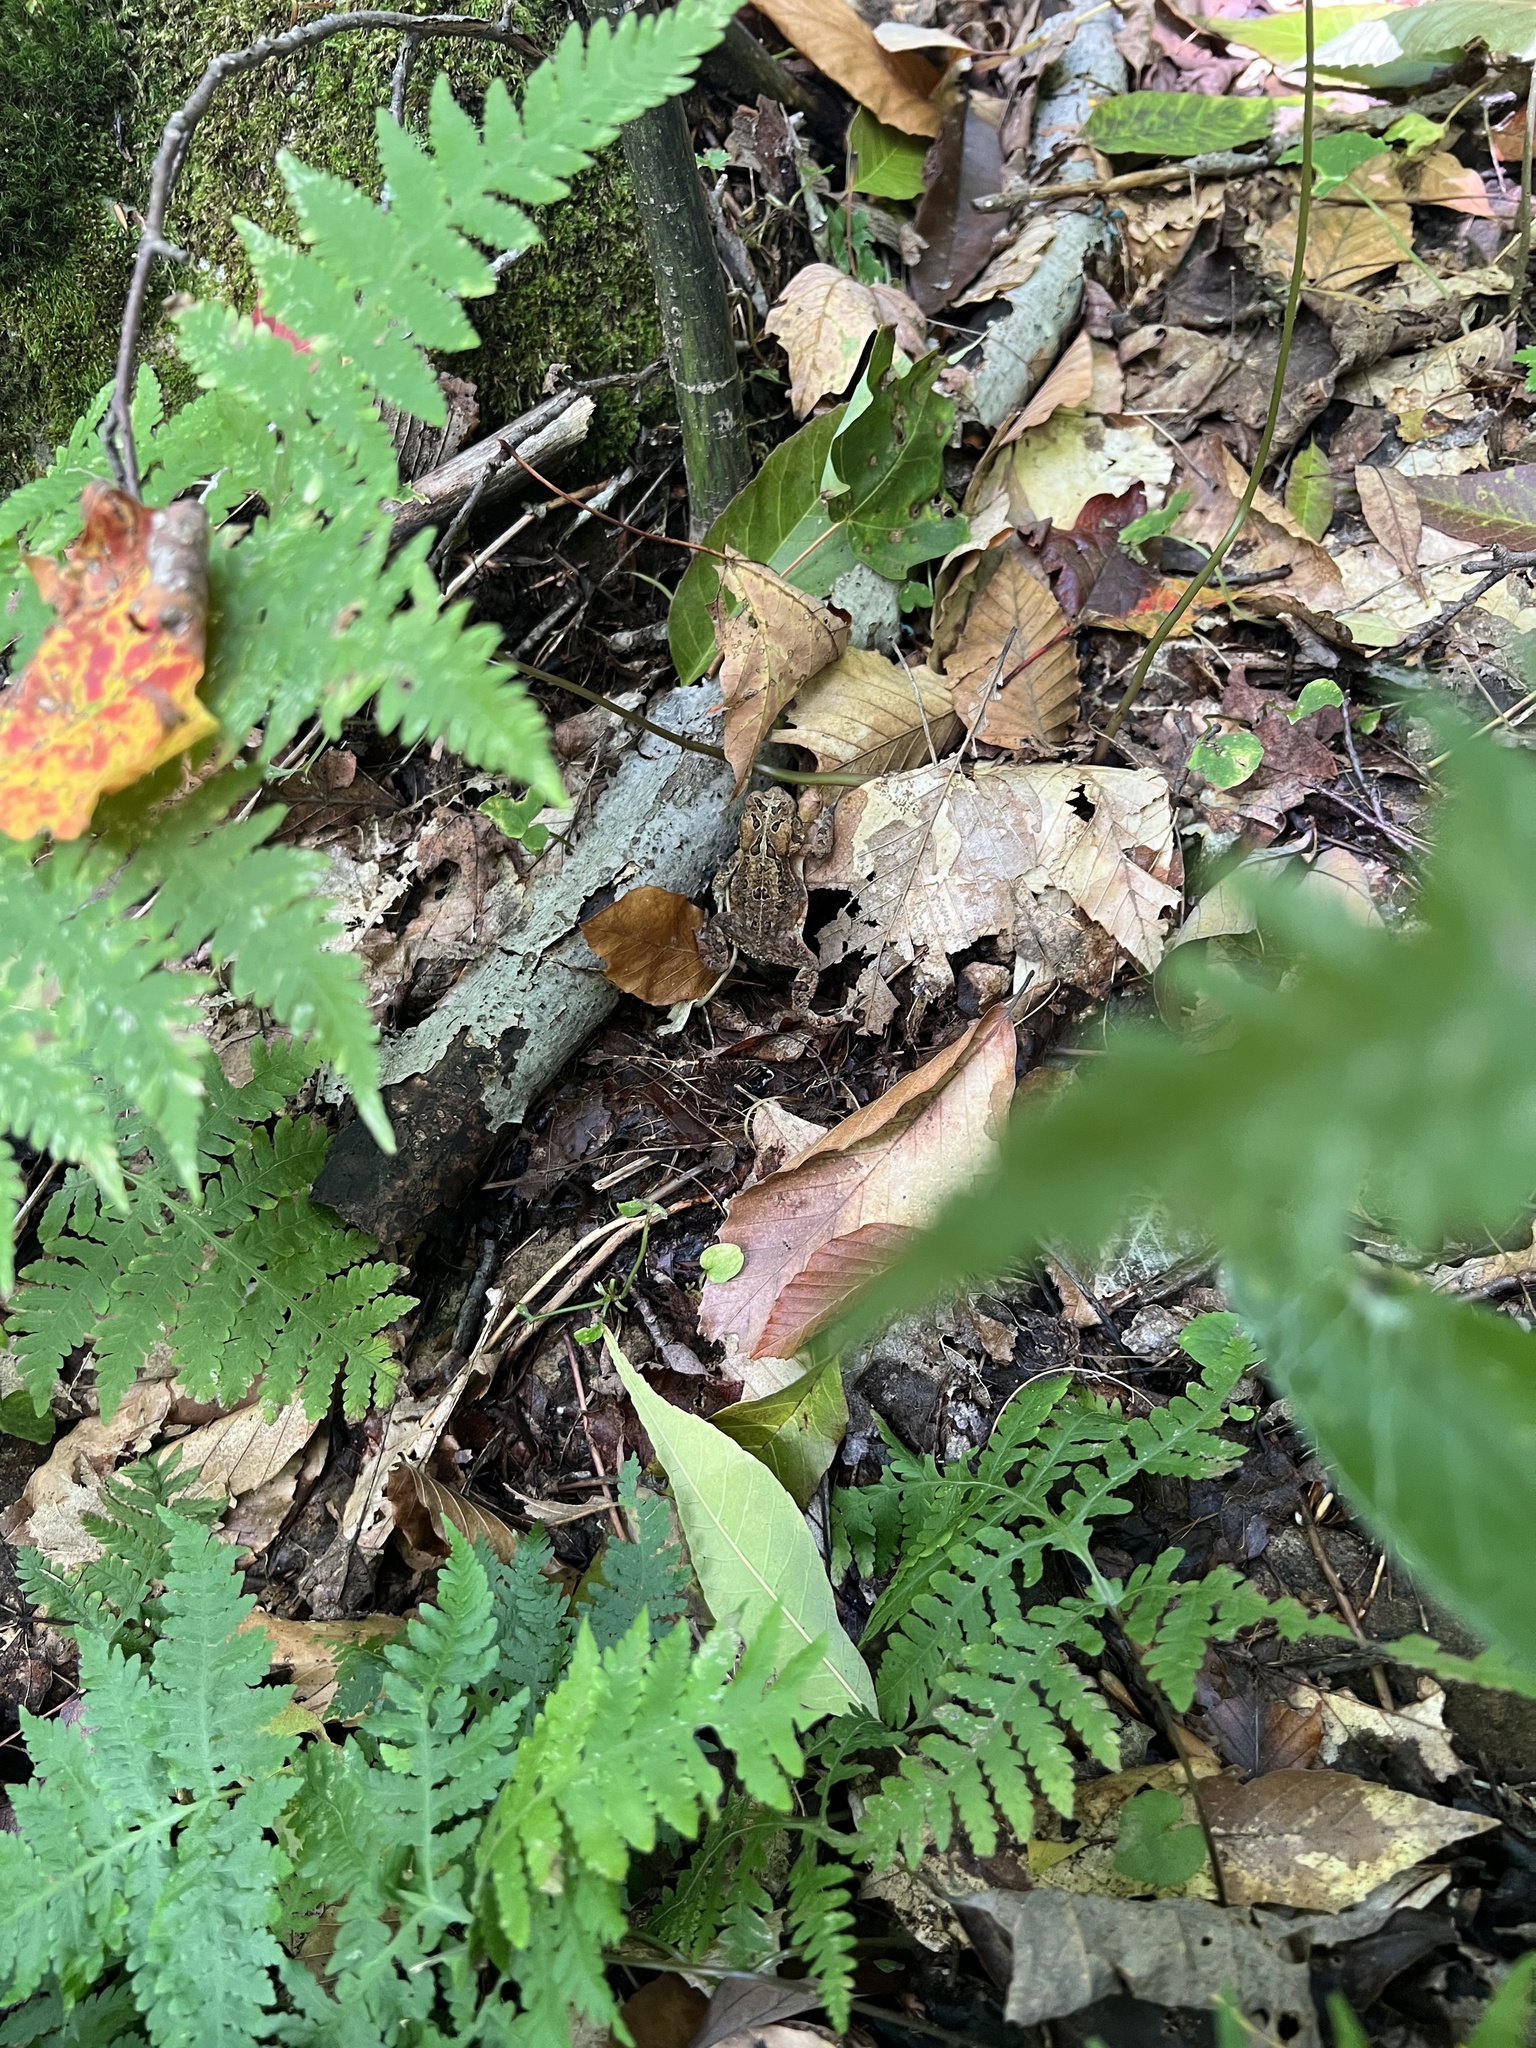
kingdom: Animalia
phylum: Chordata
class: Amphibia
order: Anura
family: Bufonidae
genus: Anaxyrus
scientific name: Anaxyrus americanus
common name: American toad
